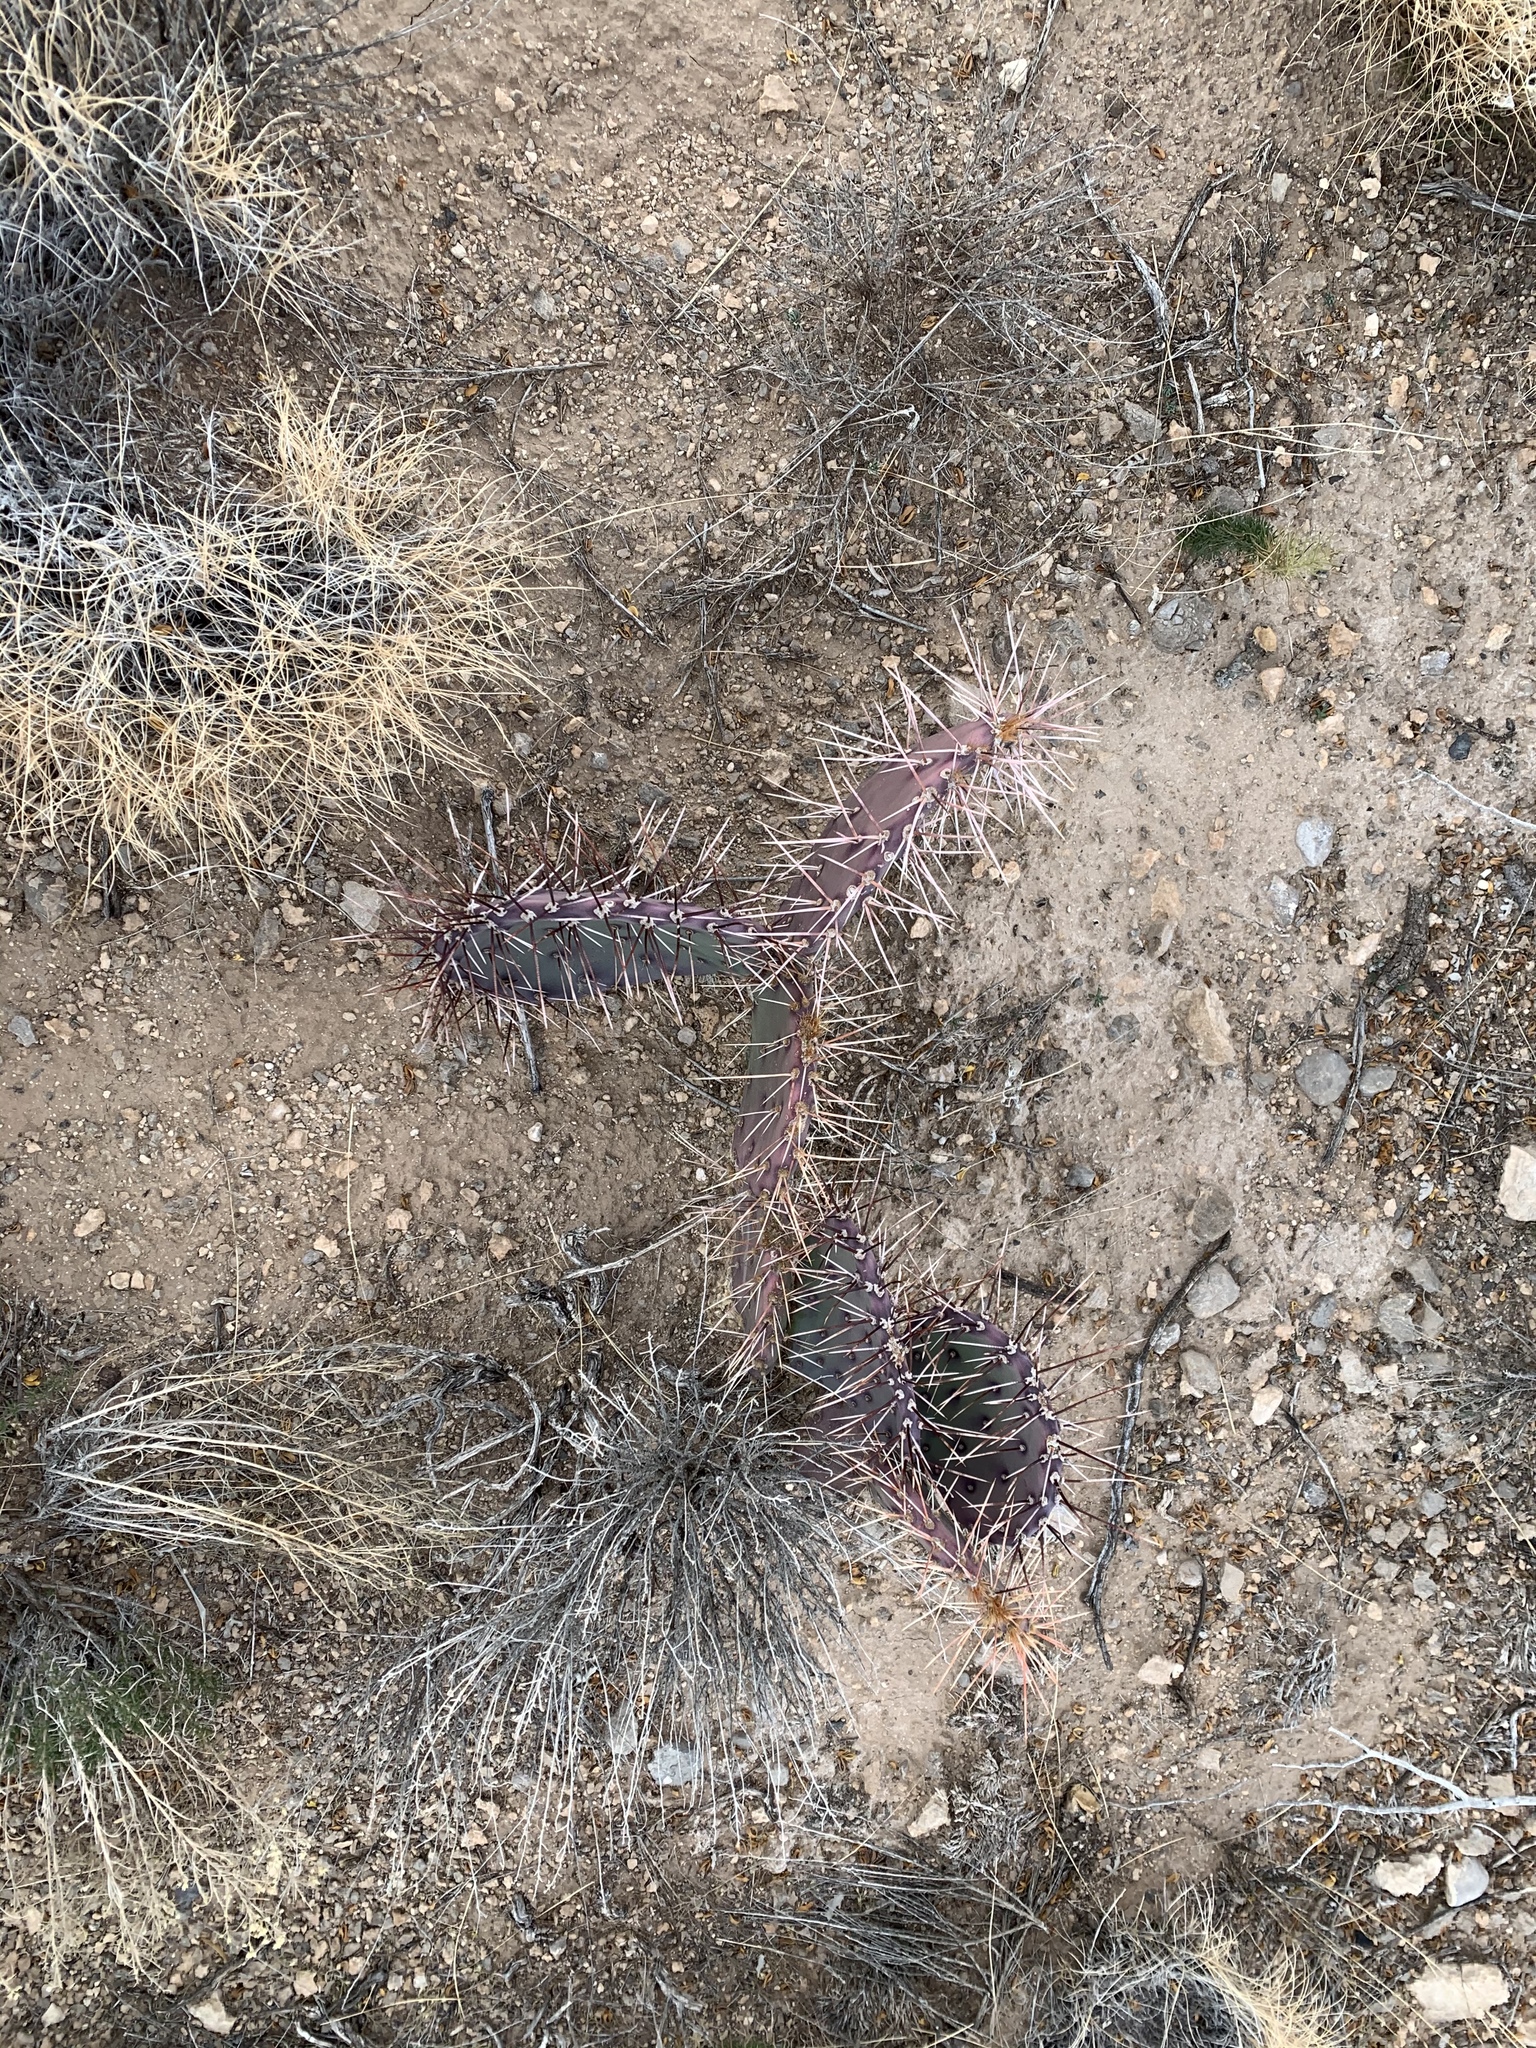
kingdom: Plantae
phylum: Tracheophyta
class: Magnoliopsida
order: Caryophyllales
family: Cactaceae
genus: Opuntia
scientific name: Opuntia macrocentra
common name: Purple prickly-pear
